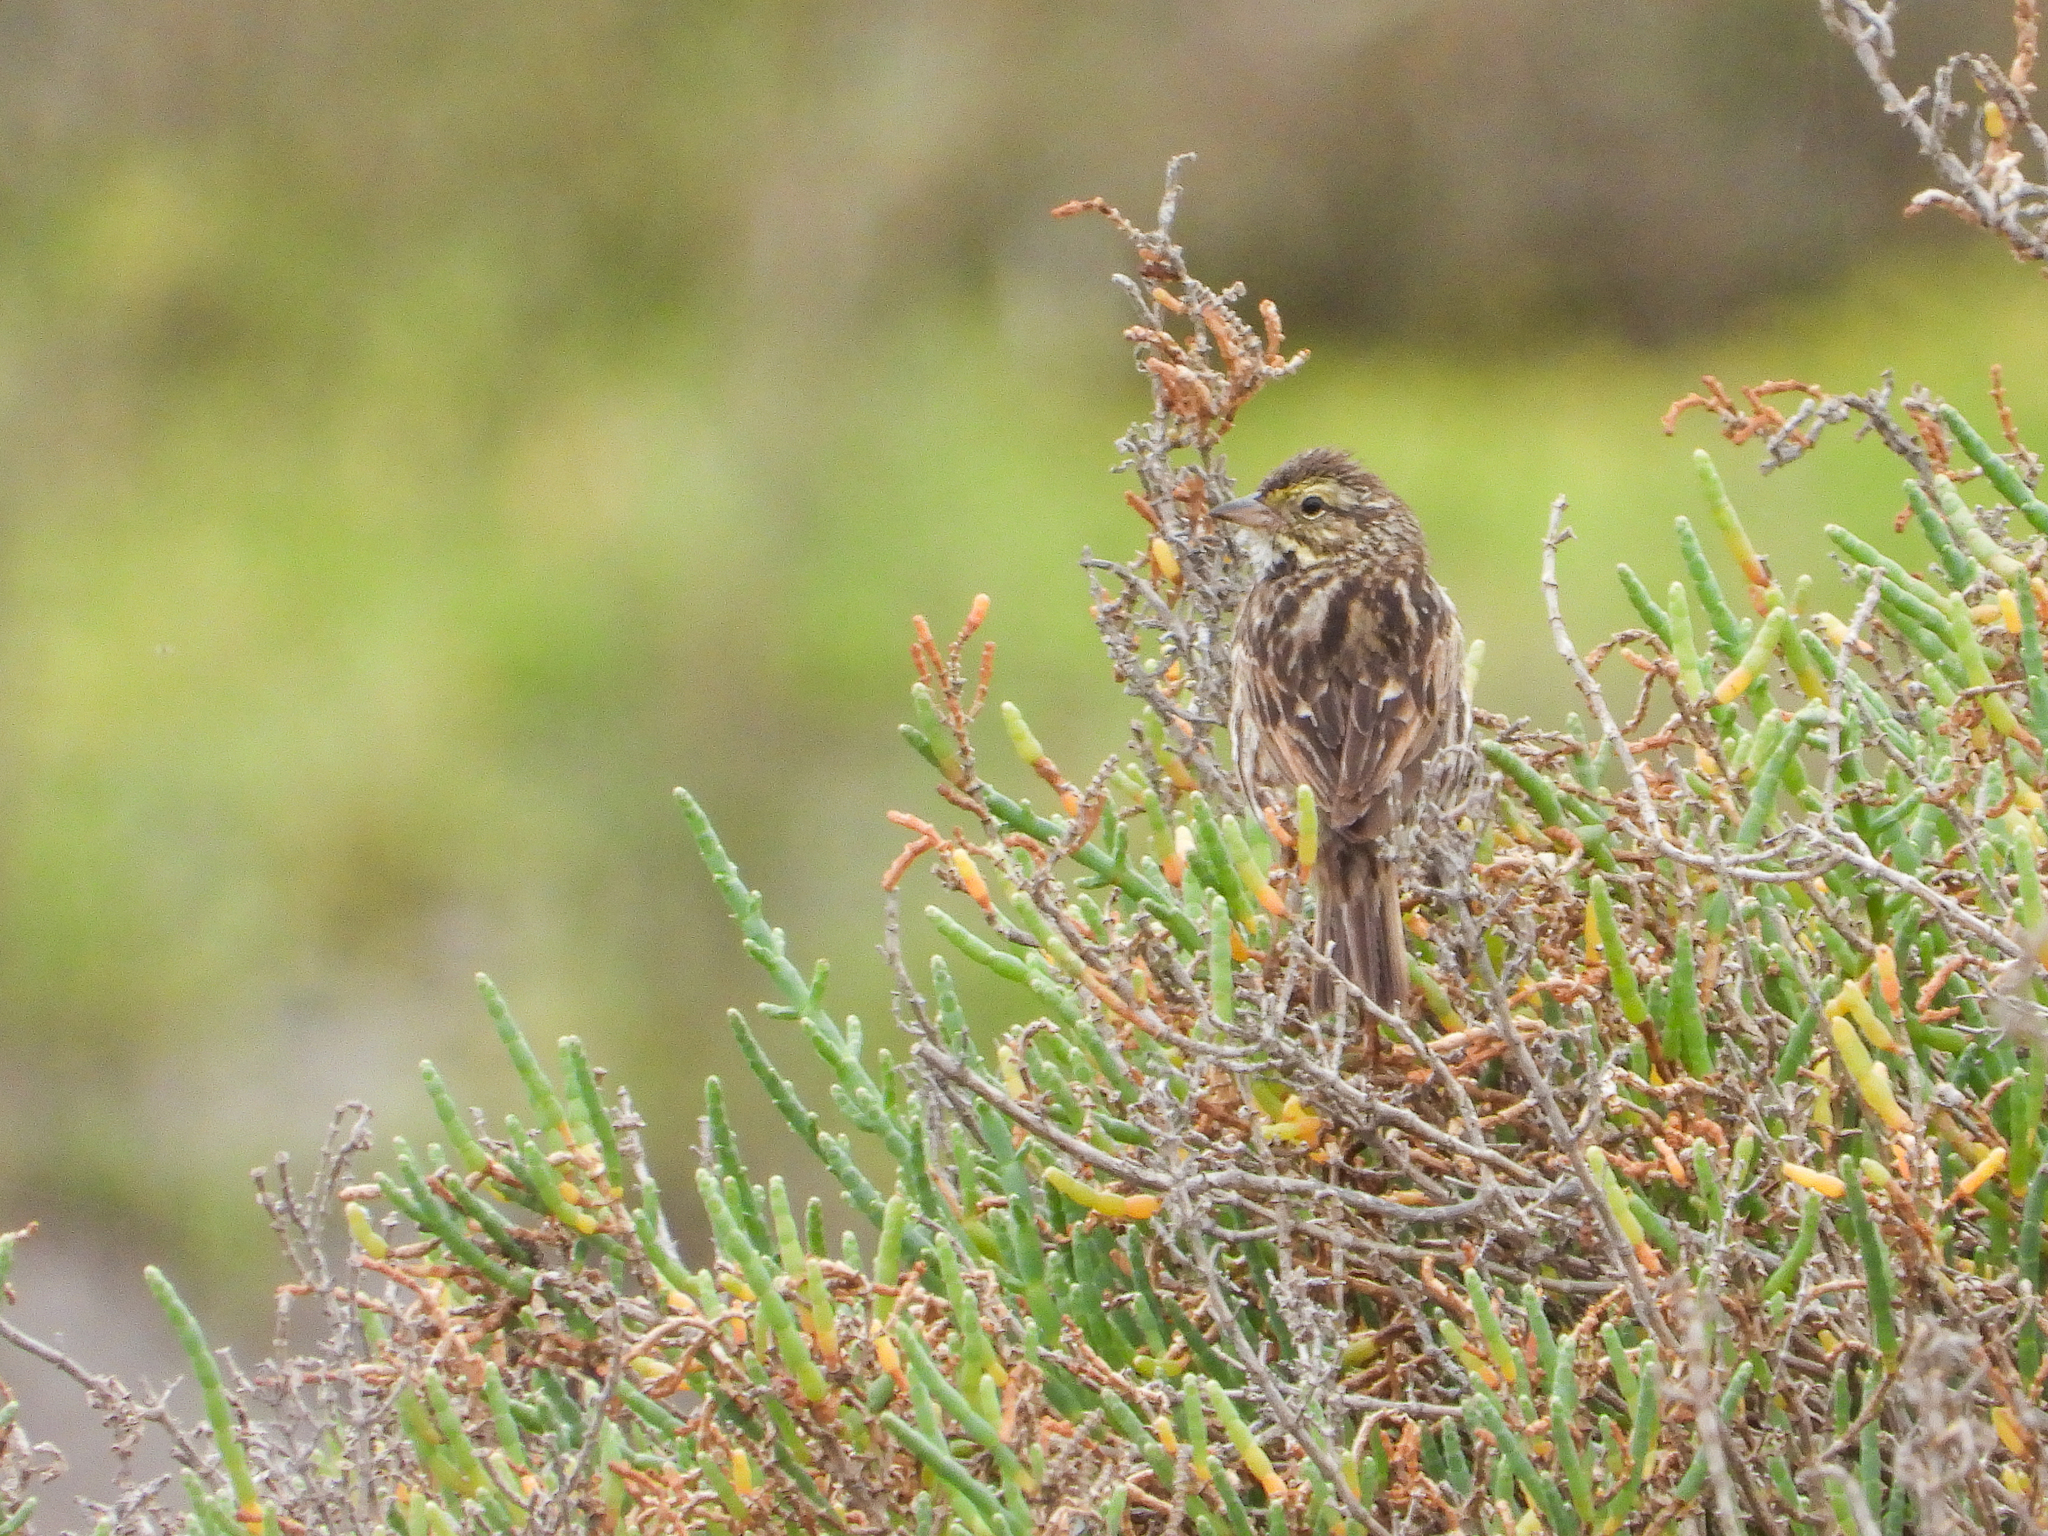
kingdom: Animalia
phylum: Chordata
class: Aves
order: Passeriformes
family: Passerellidae
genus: Passerculus
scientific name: Passerculus sandwichensis
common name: Savannah sparrow
